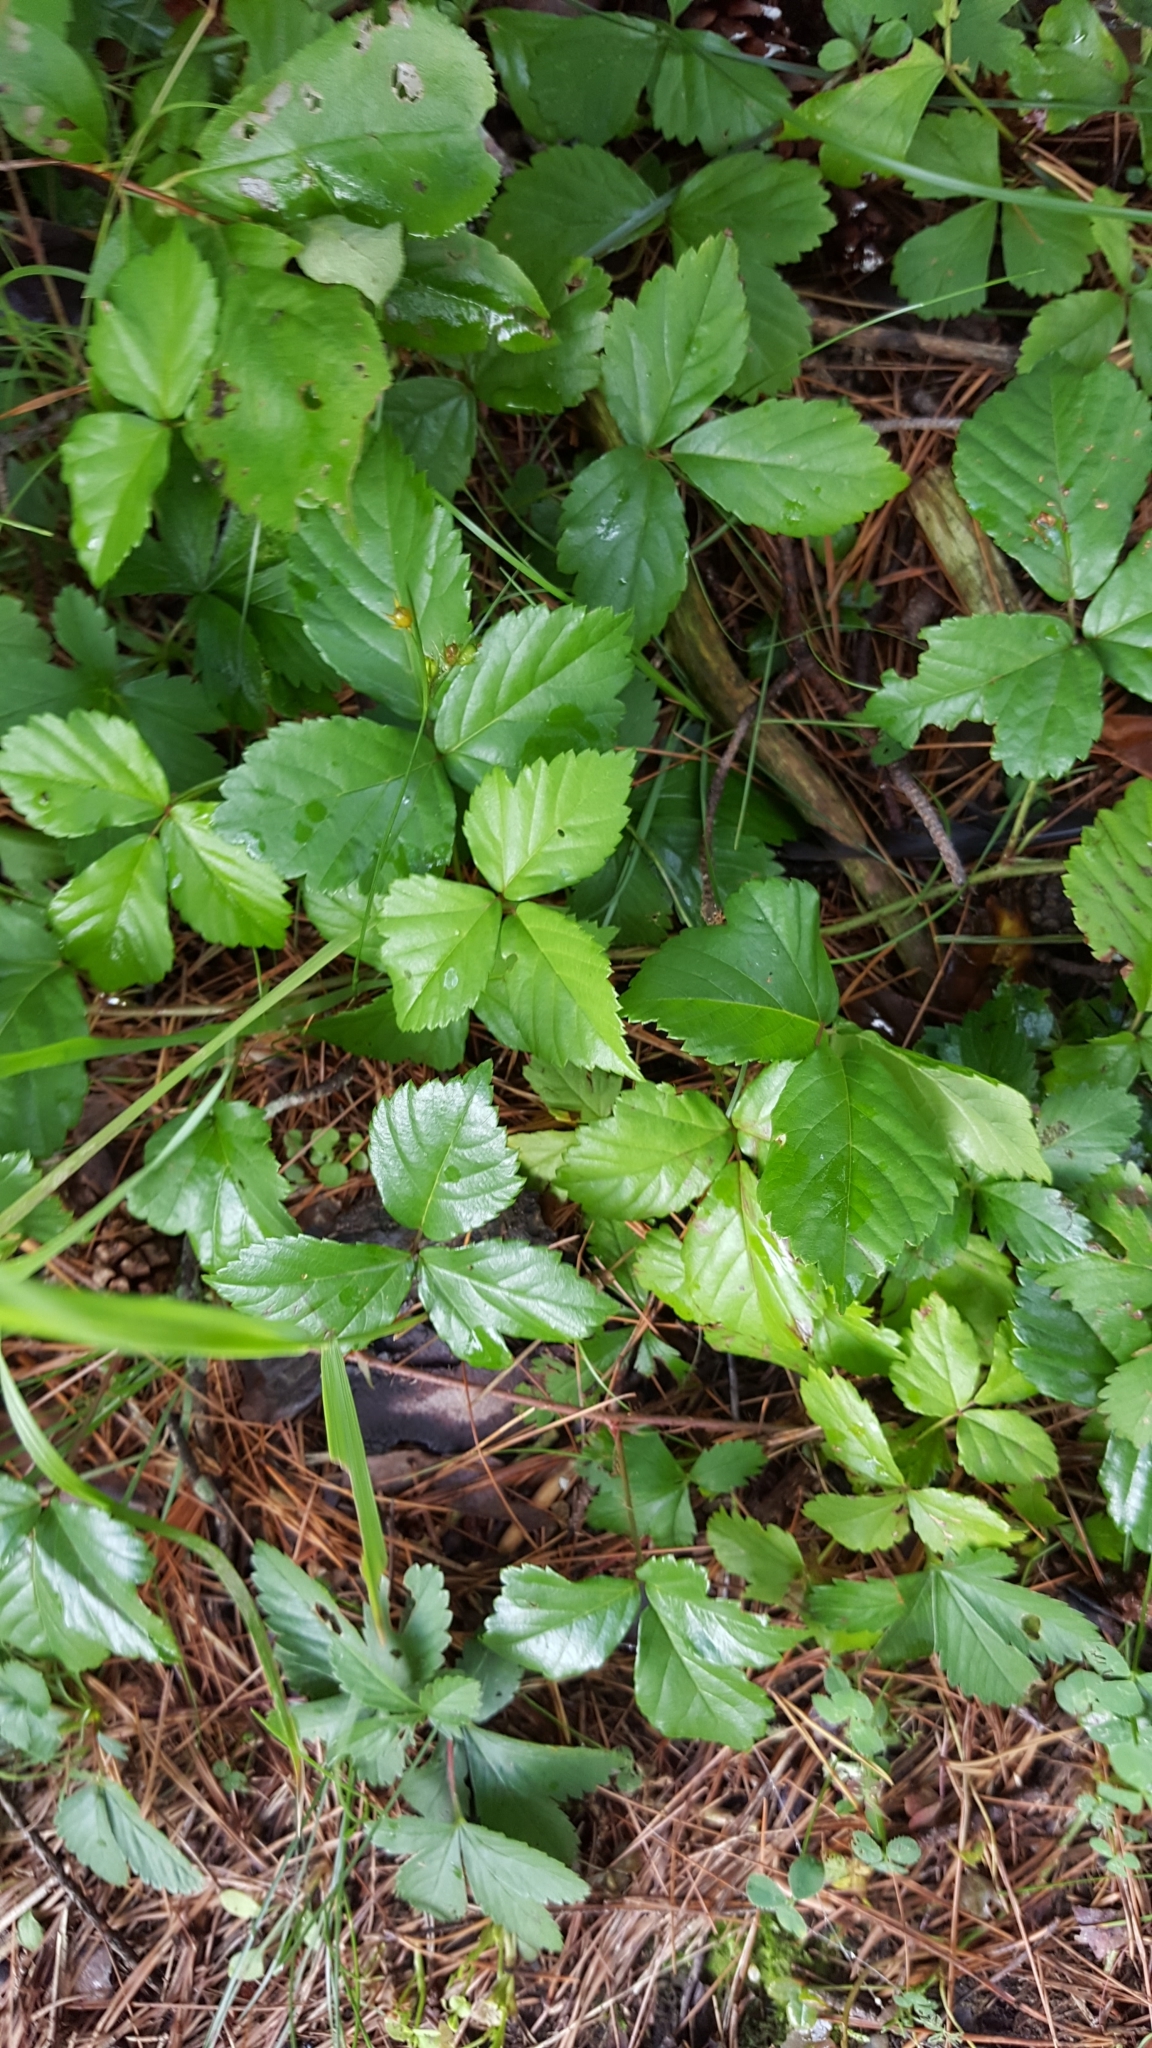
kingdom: Plantae
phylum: Tracheophyta
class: Magnoliopsida
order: Rosales
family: Rosaceae
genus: Rubus
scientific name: Rubus hispidus
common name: Running blackberry
